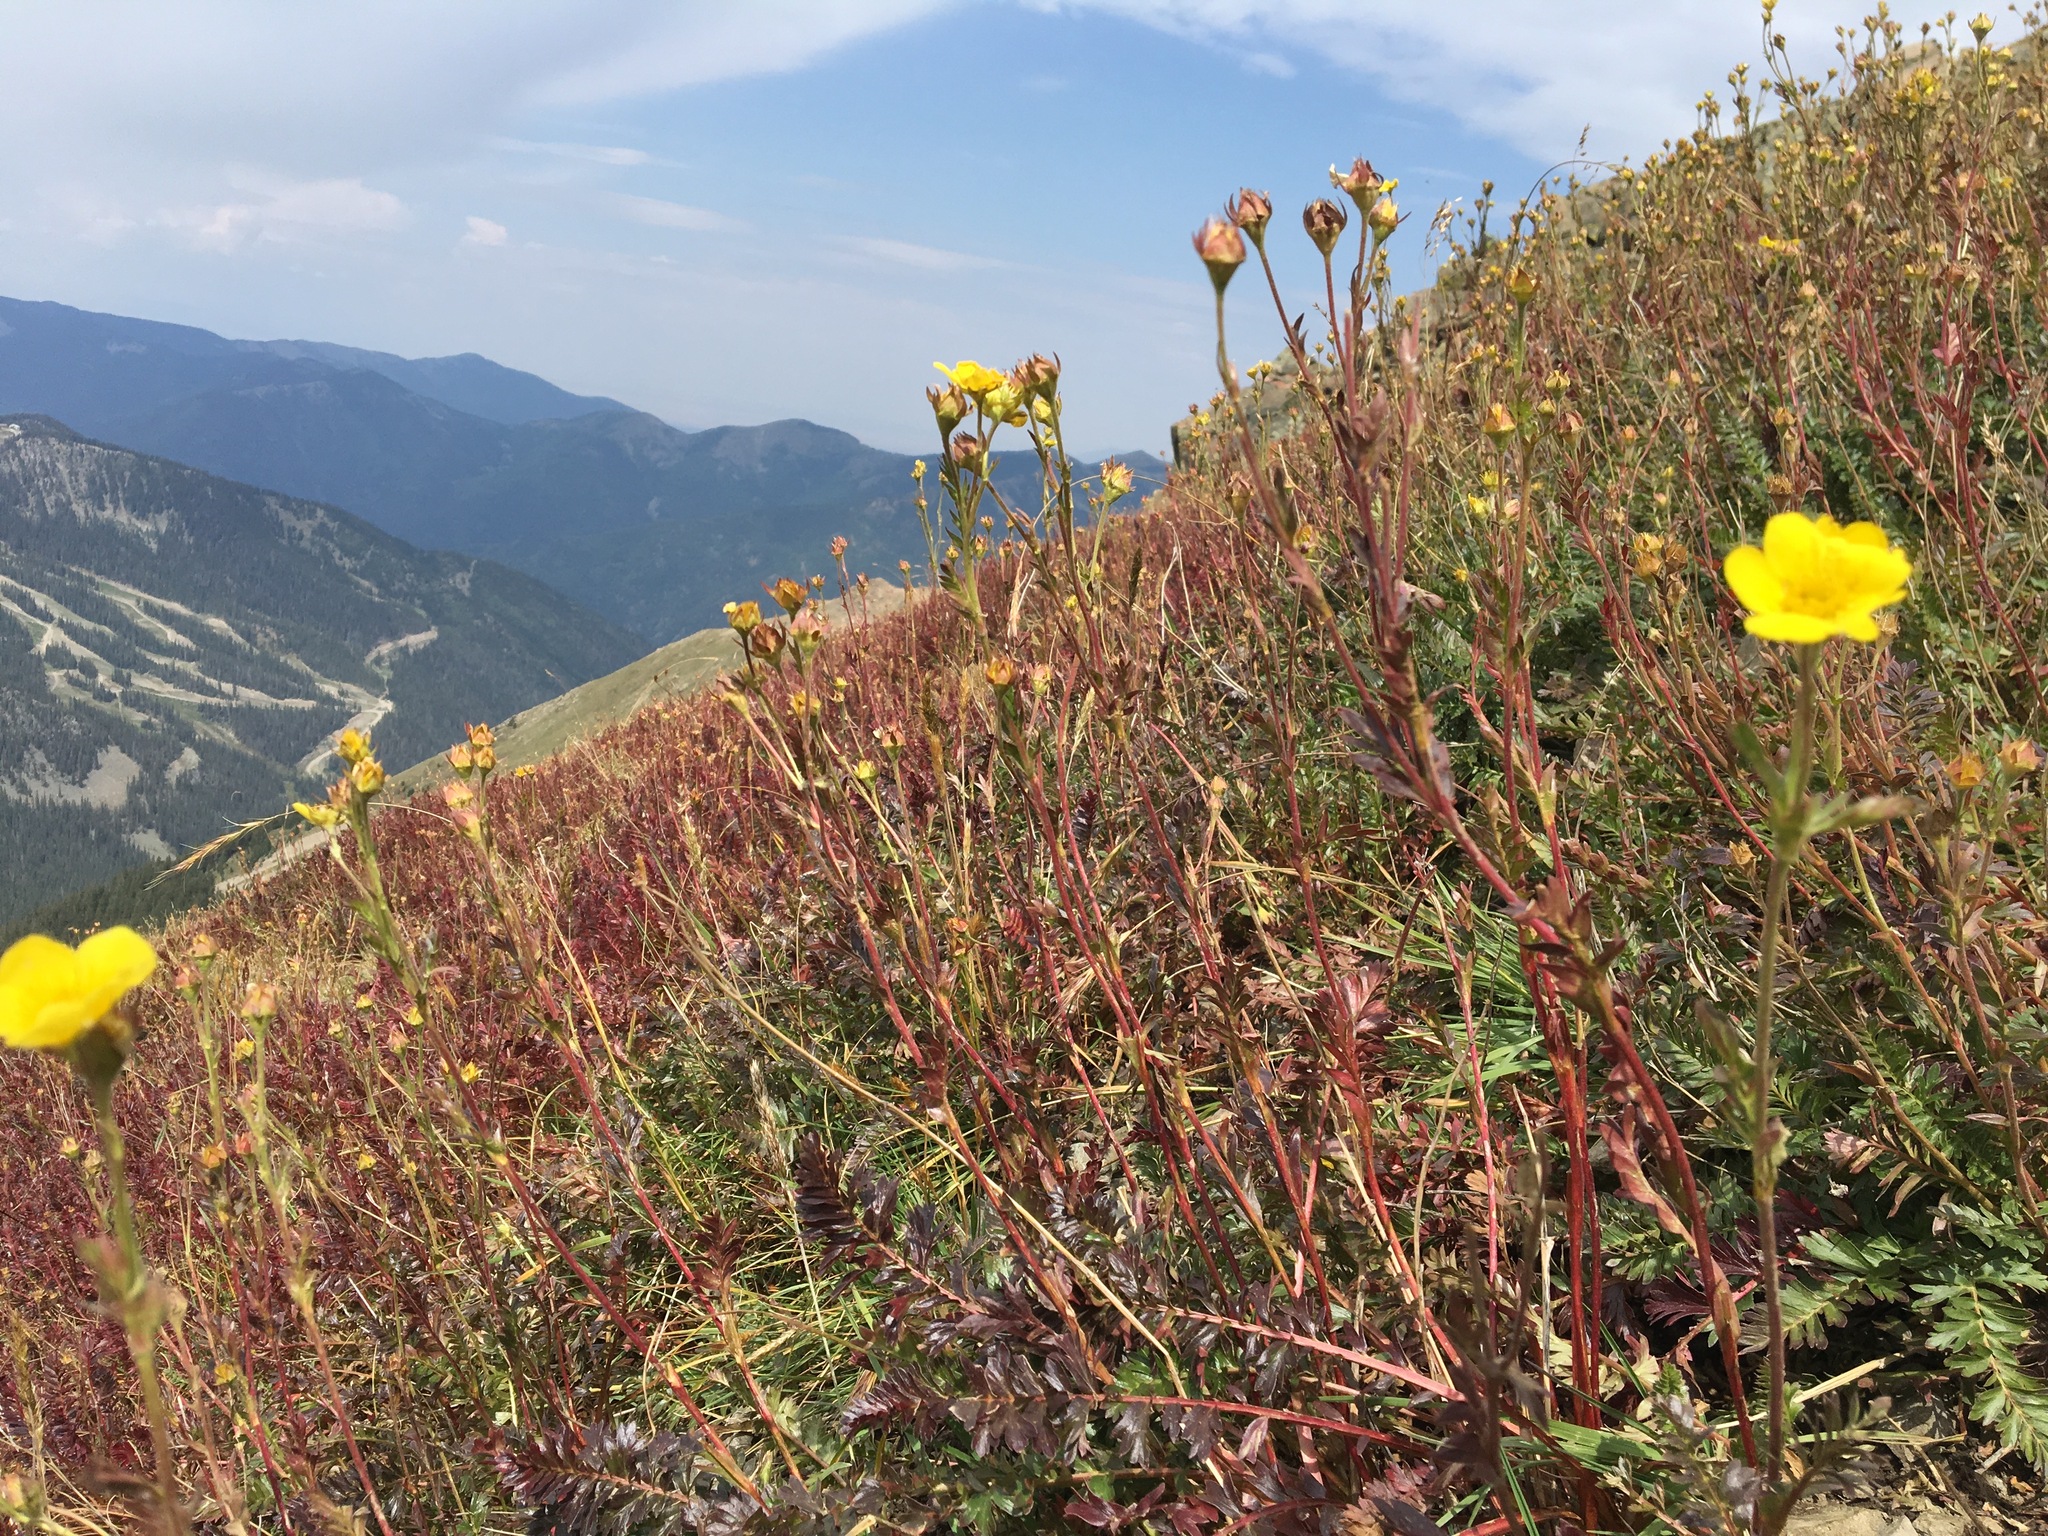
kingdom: Plantae
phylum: Tracheophyta
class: Magnoliopsida
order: Rosales
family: Rosaceae
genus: Geum
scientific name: Geum rossii
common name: Alpine avens
